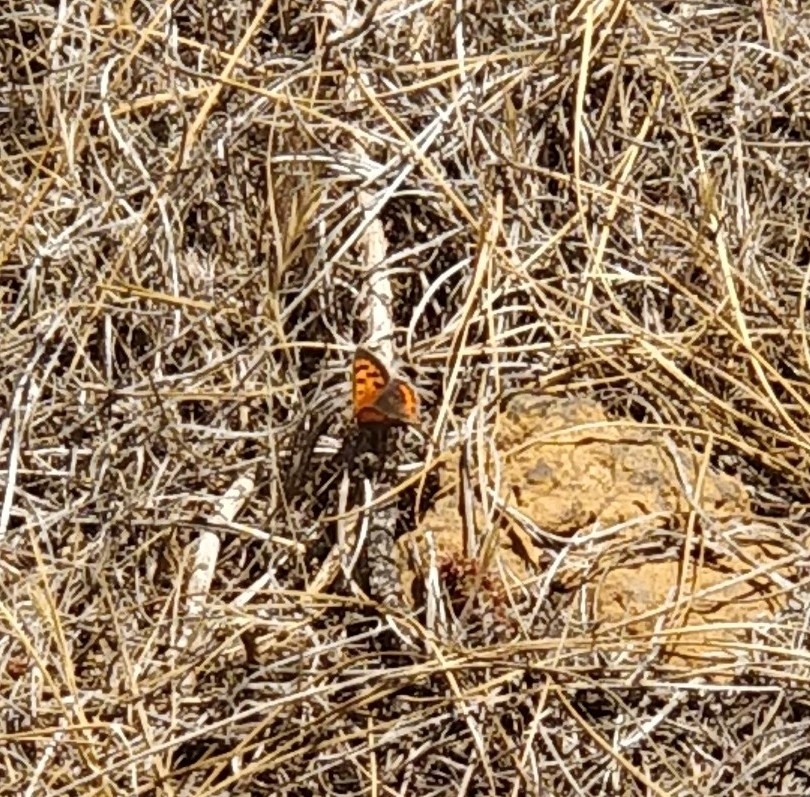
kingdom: Animalia
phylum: Arthropoda
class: Insecta
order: Lepidoptera
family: Lycaenidae
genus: Lycaena
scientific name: Lycaena phlaeas
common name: Small copper
